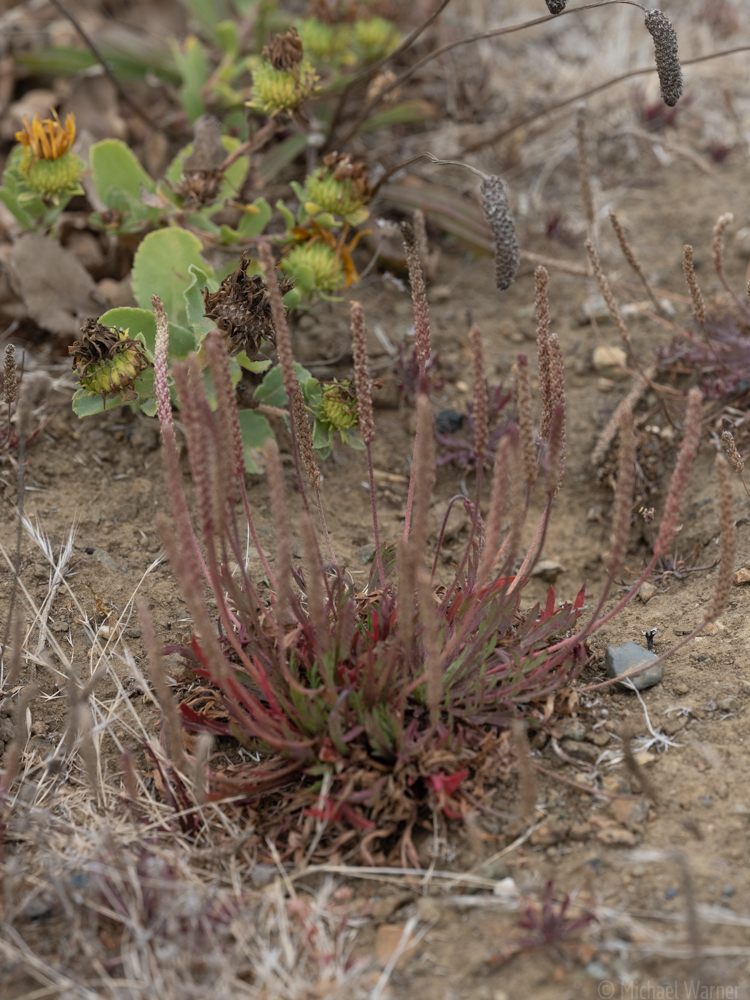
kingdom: Plantae
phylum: Tracheophyta
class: Magnoliopsida
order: Lamiales
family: Plantaginaceae
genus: Plantago
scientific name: Plantago coronopus
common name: Buck's-horn plantain
